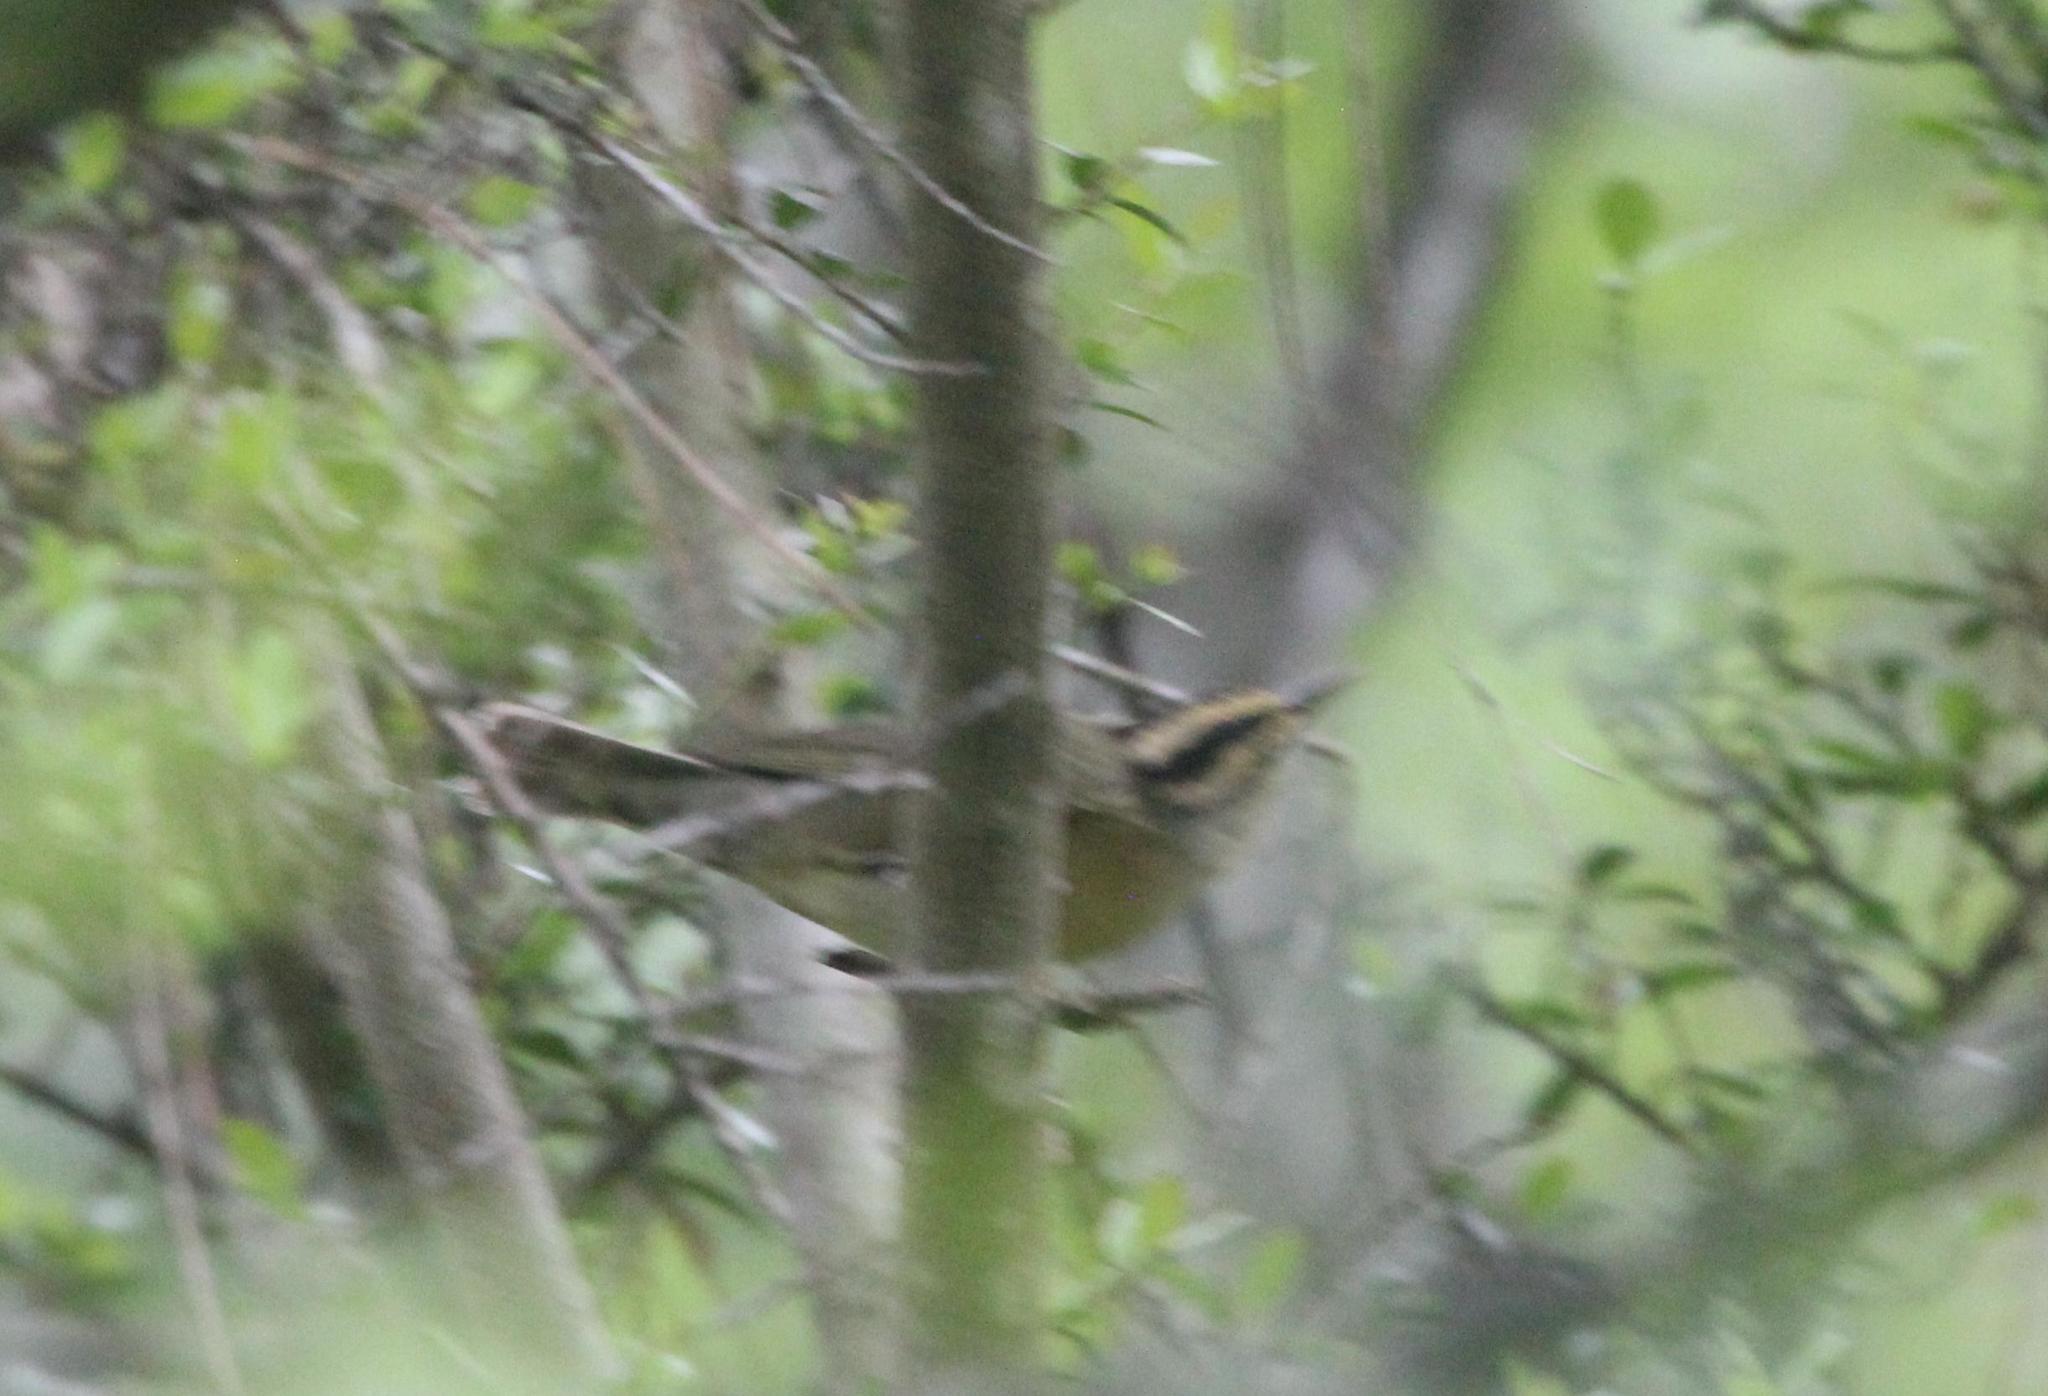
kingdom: Animalia
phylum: Chordata
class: Aves
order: Passeriformes
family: Parulidae
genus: Helmitheros
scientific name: Helmitheros vermivorum
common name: Worm-eating warbler
